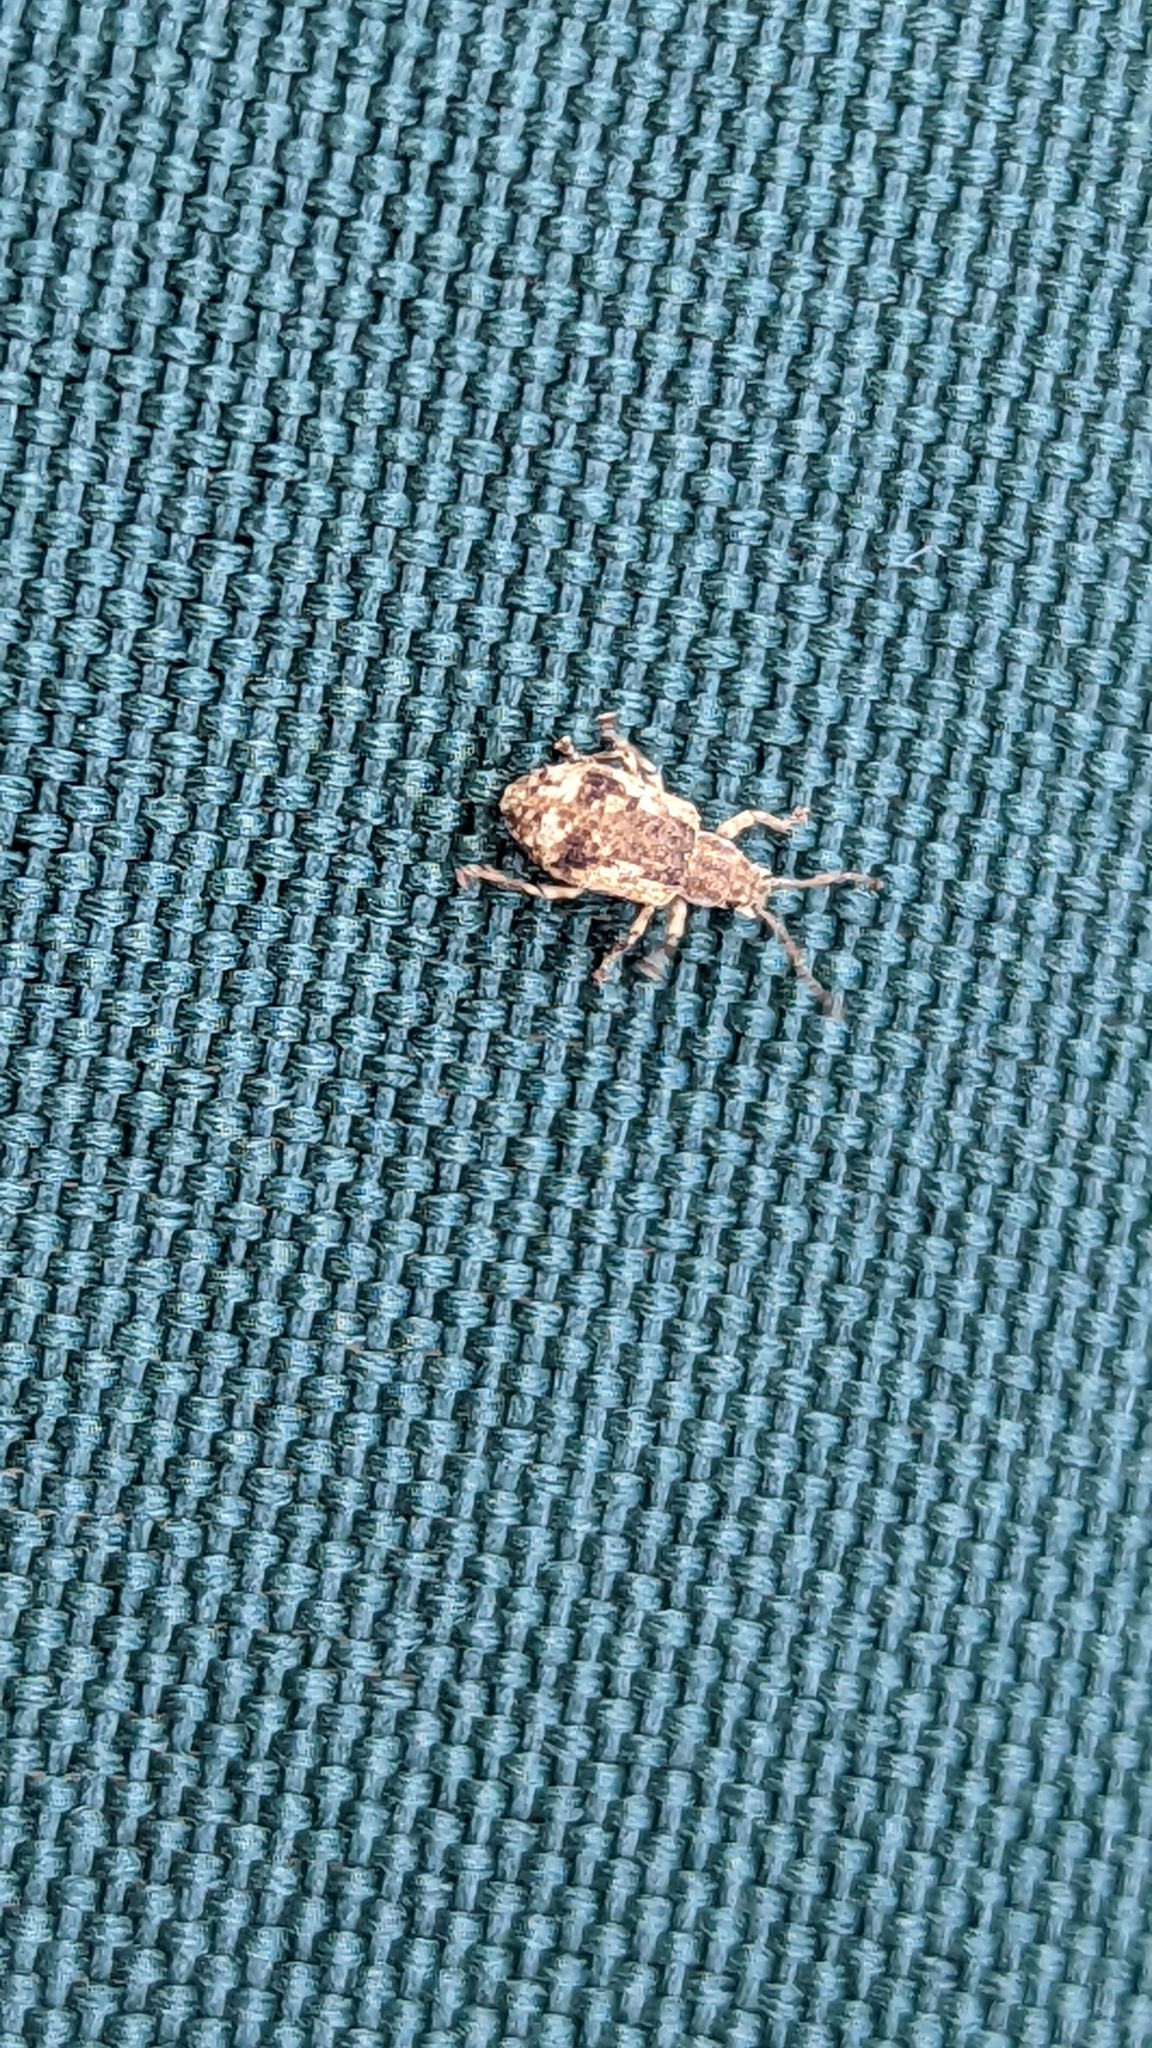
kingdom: Animalia
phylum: Arthropoda
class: Insecta
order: Coleoptera
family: Curculionidae
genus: Pseudoedophrys
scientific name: Pseudoedophrys hilleri
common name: Weevil
